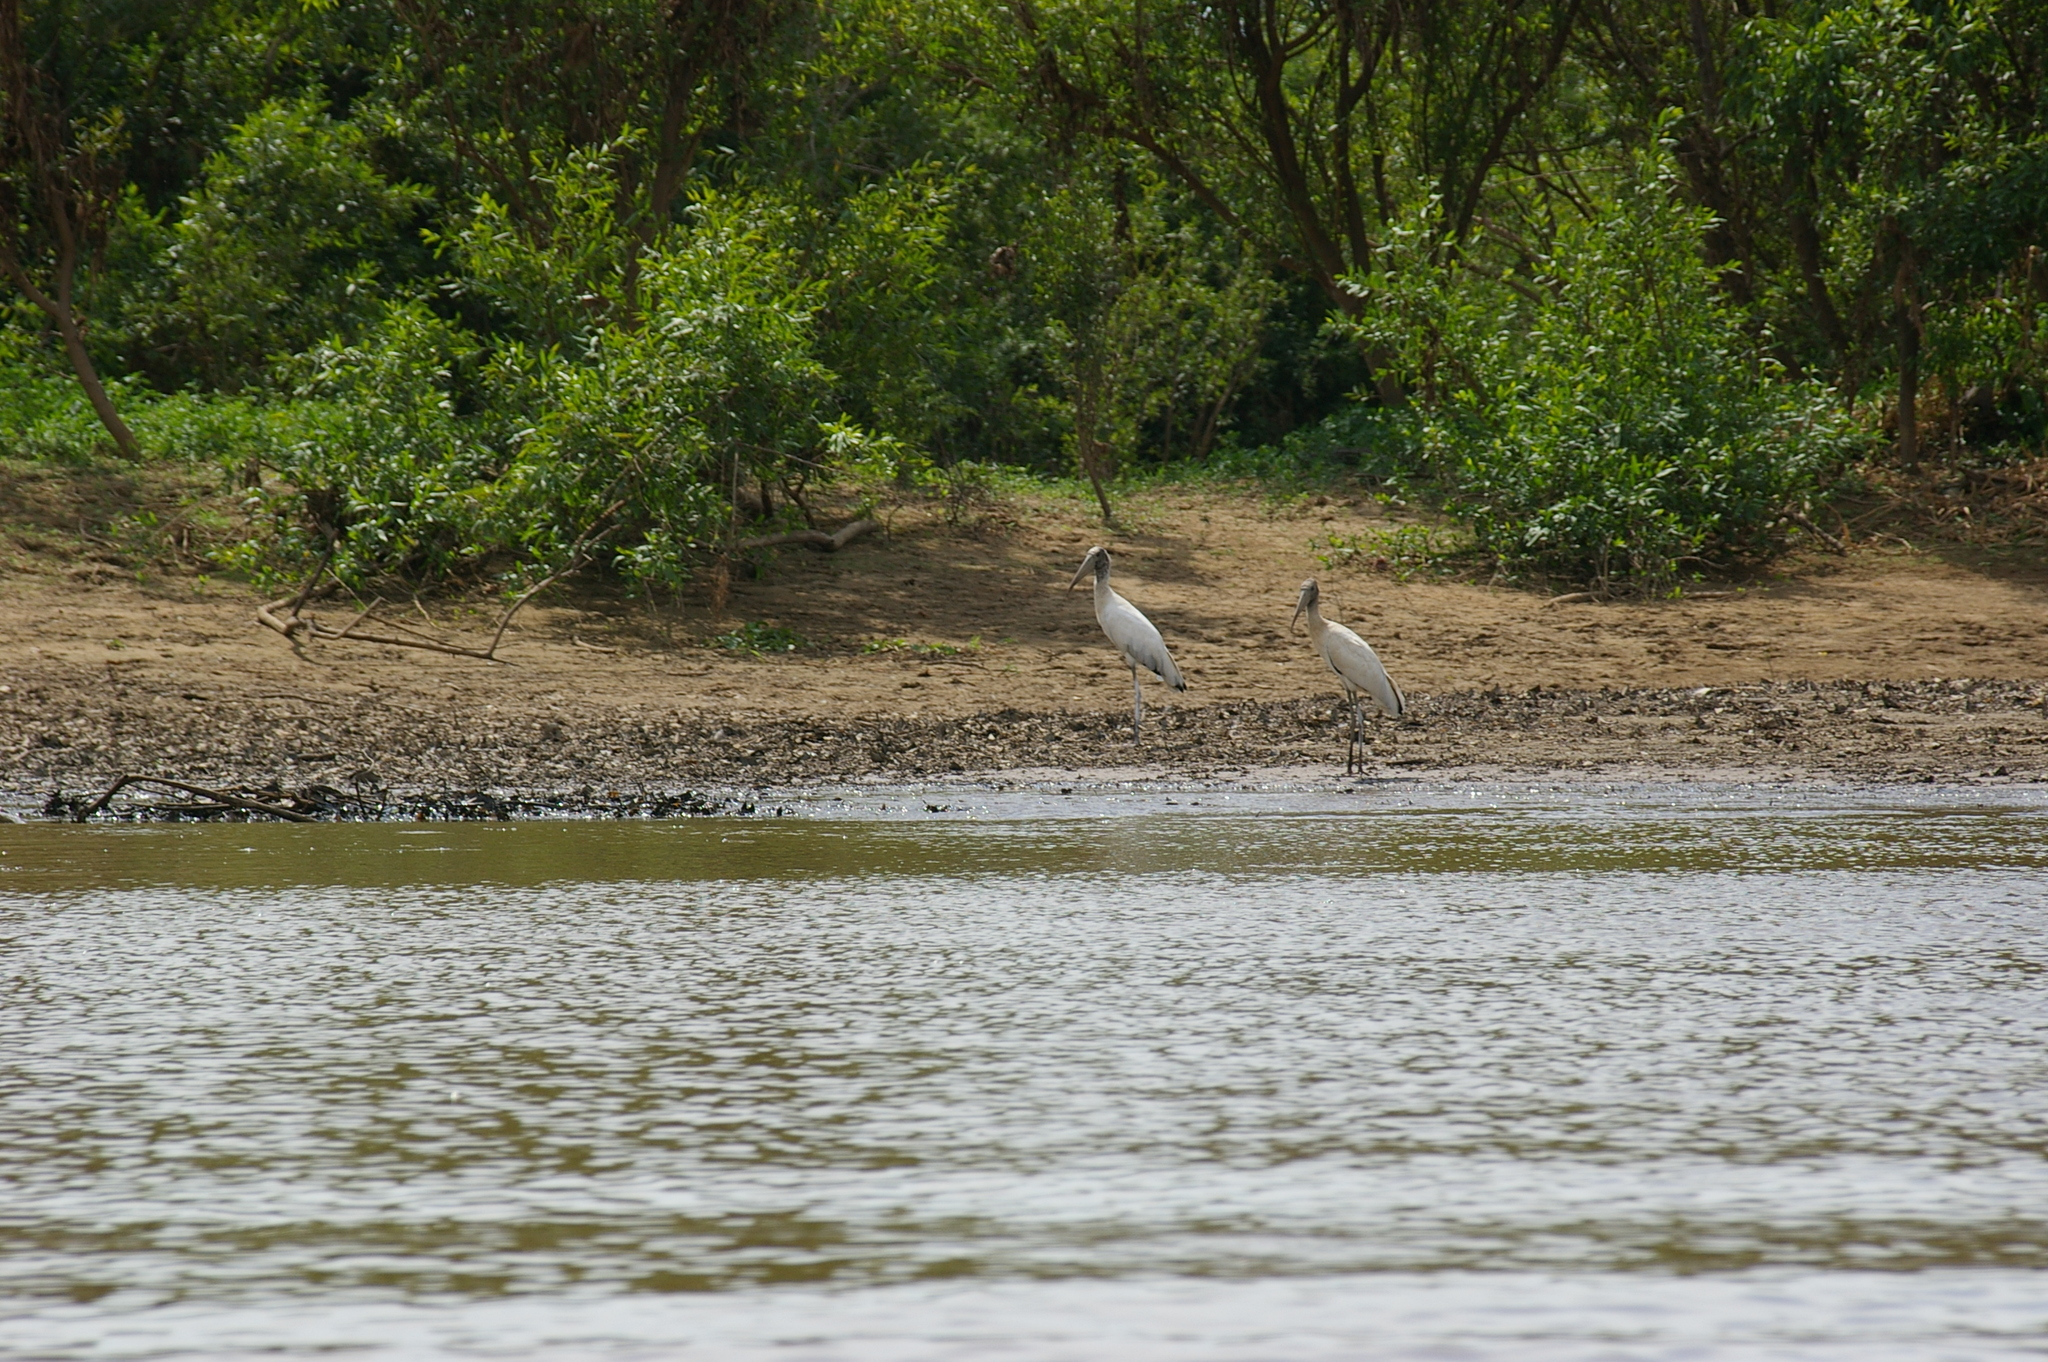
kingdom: Animalia
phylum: Chordata
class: Aves
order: Ciconiiformes
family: Ciconiidae
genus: Mycteria
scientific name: Mycteria americana
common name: Wood stork
